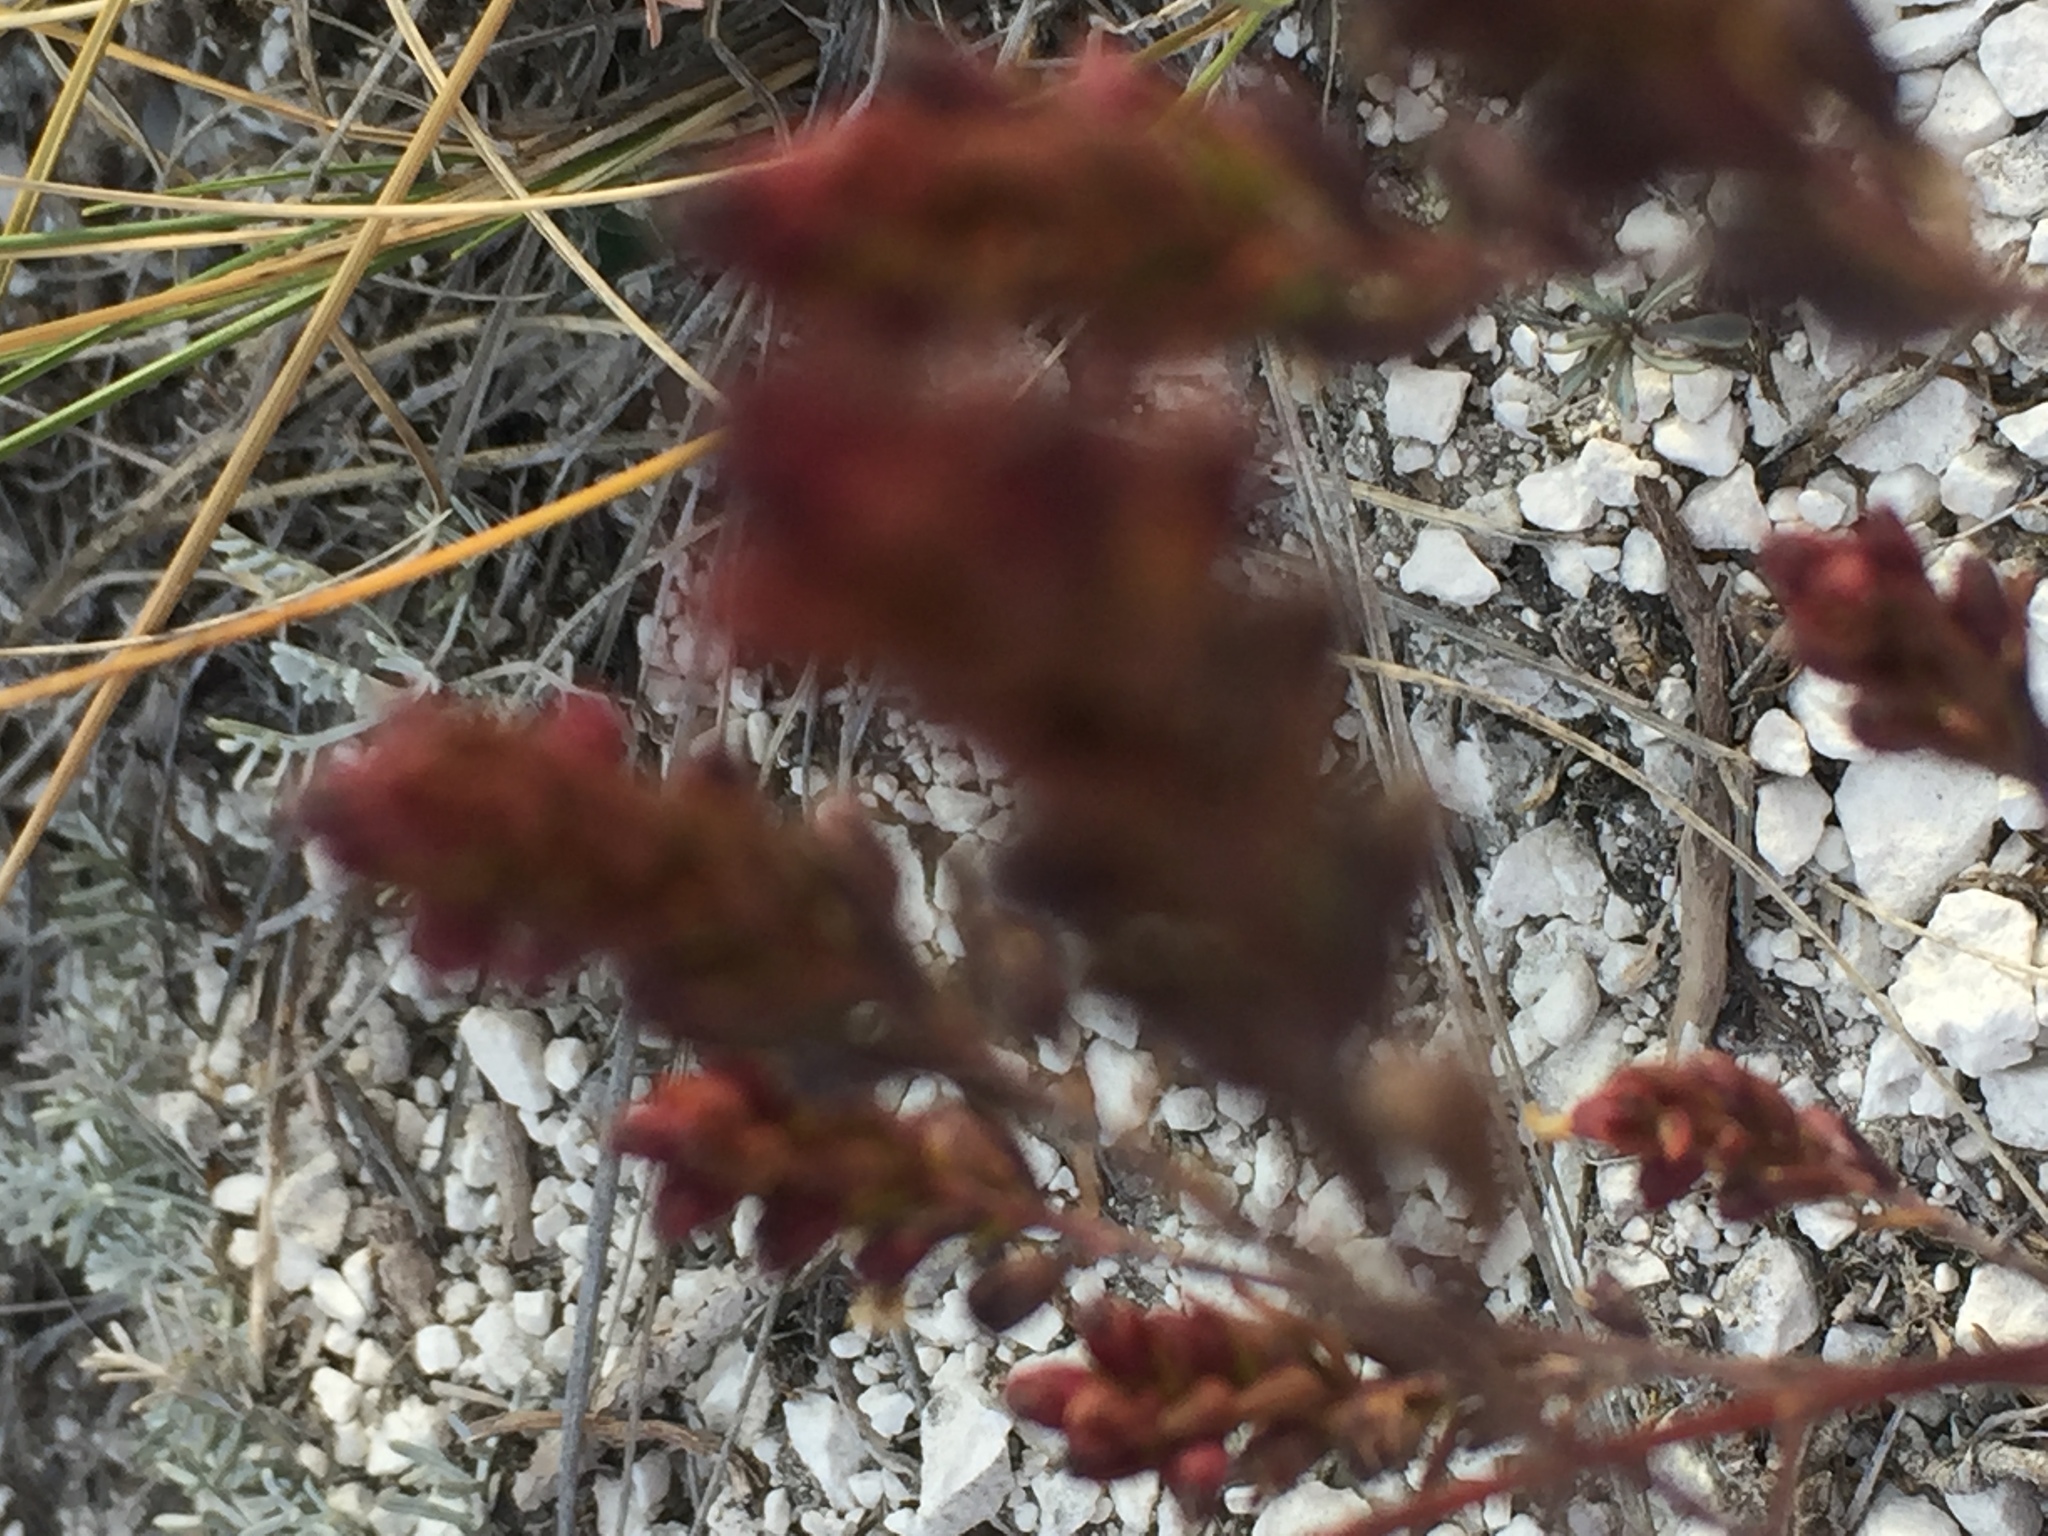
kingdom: Plantae
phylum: Tracheophyta
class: Magnoliopsida
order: Lamiales
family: Orobanchaceae
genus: Odontites
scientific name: Odontites vulgaris
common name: Broomrape
